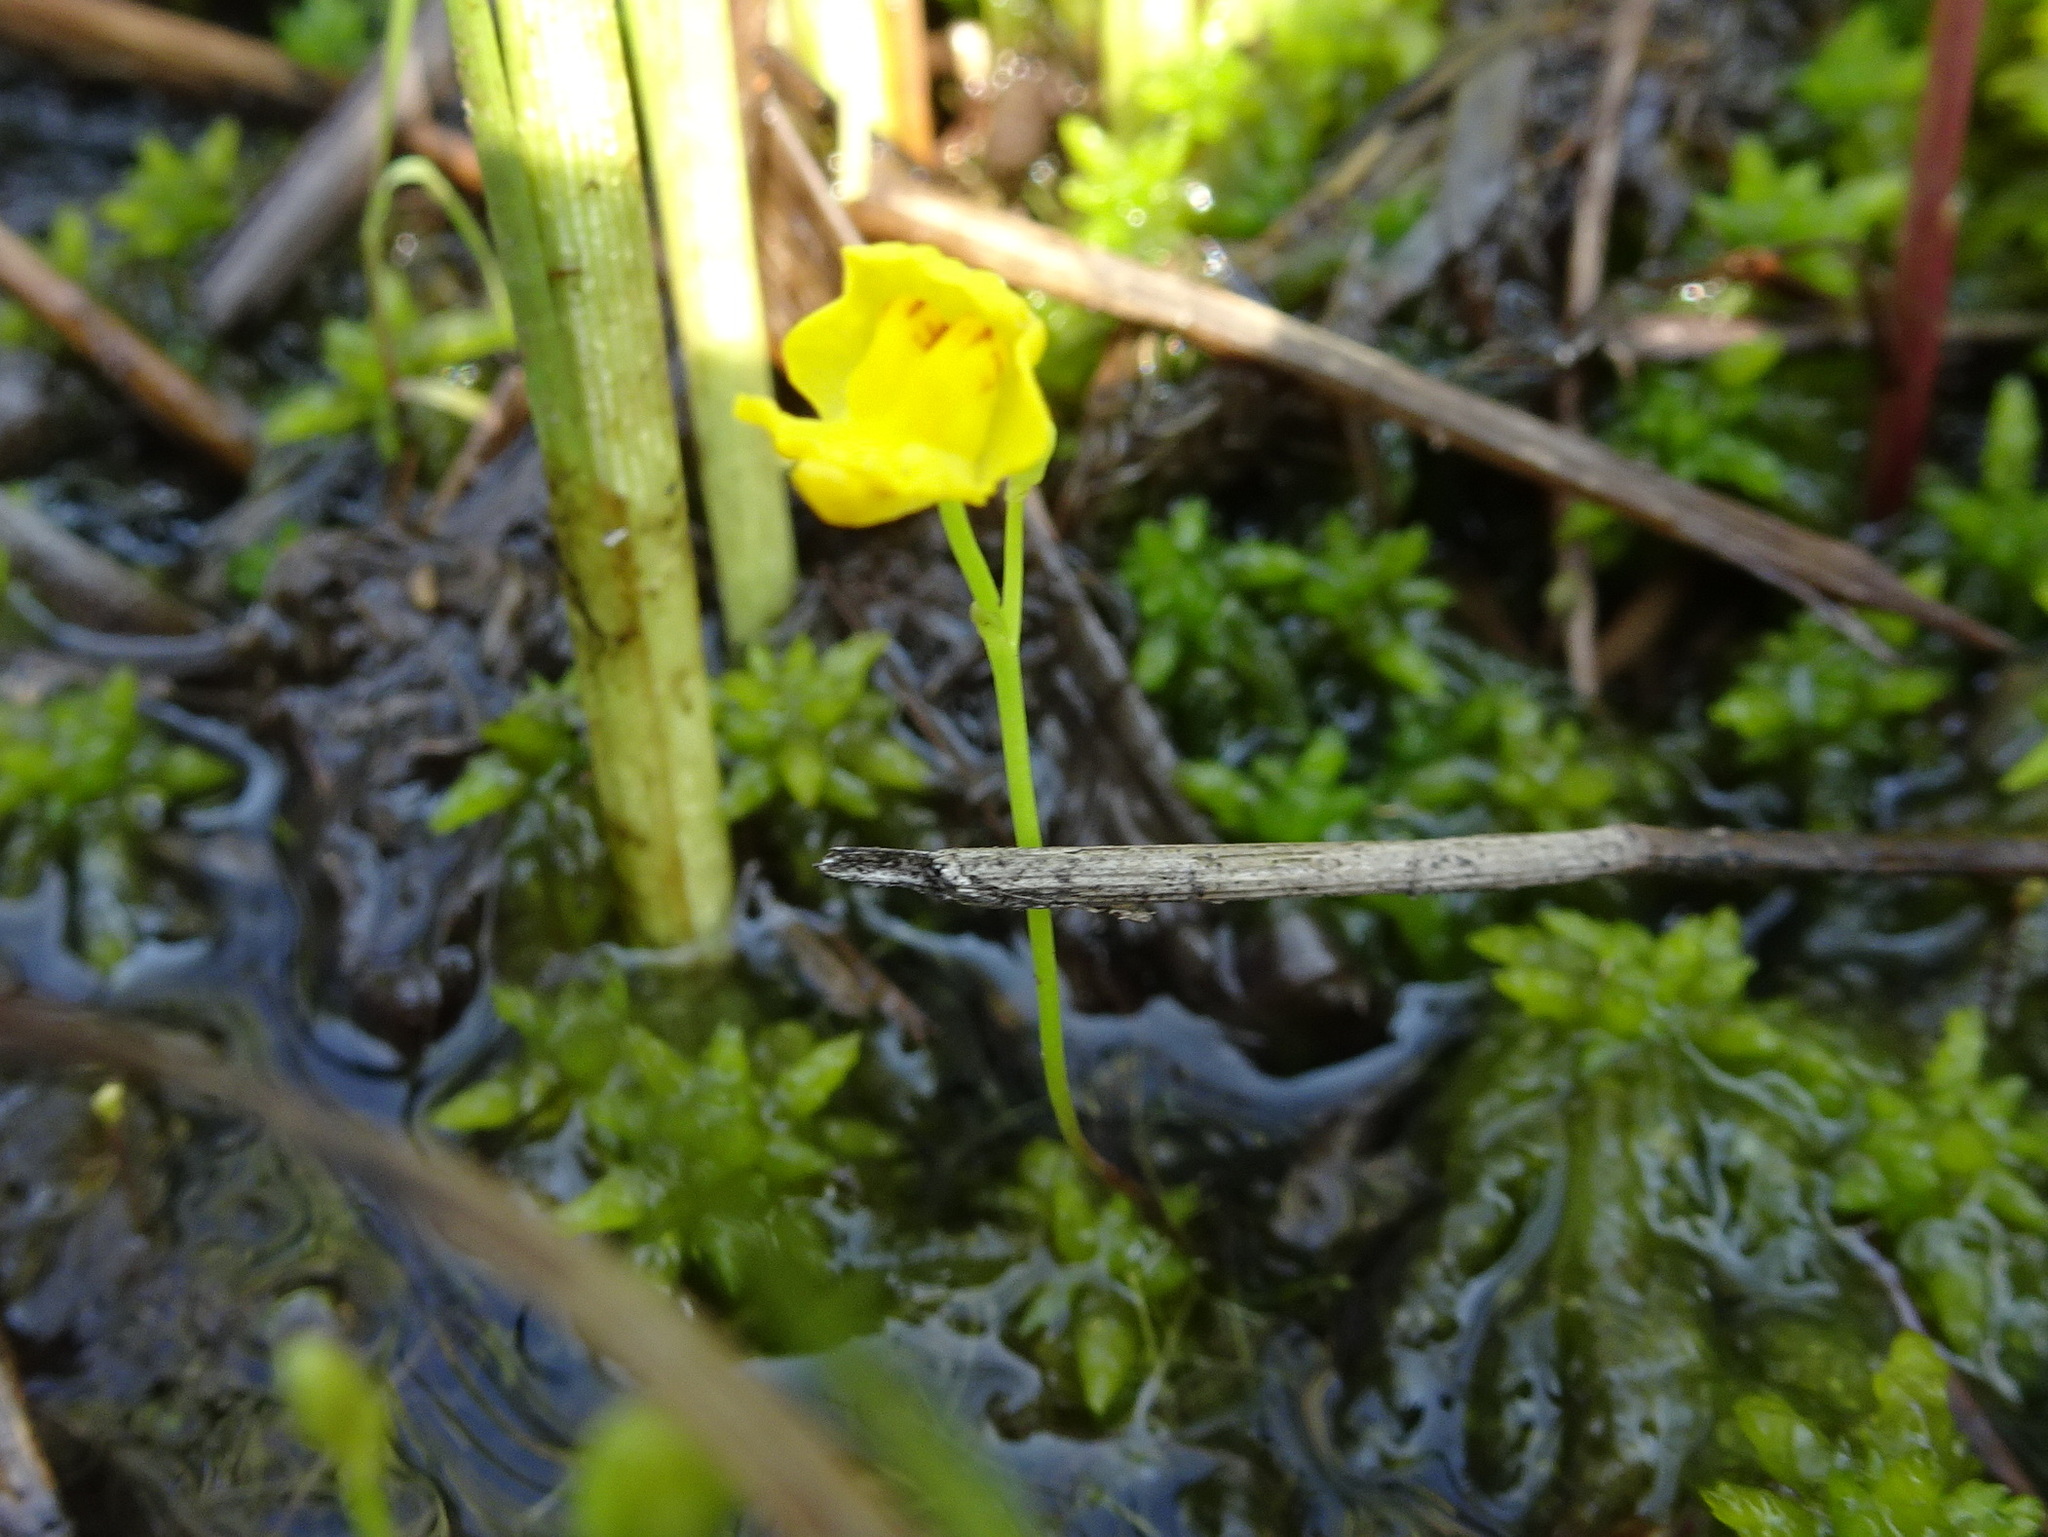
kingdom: Plantae
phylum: Tracheophyta
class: Magnoliopsida
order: Lamiales
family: Lentibulariaceae
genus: Utricularia
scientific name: Utricularia gibba
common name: Humped bladderwort
